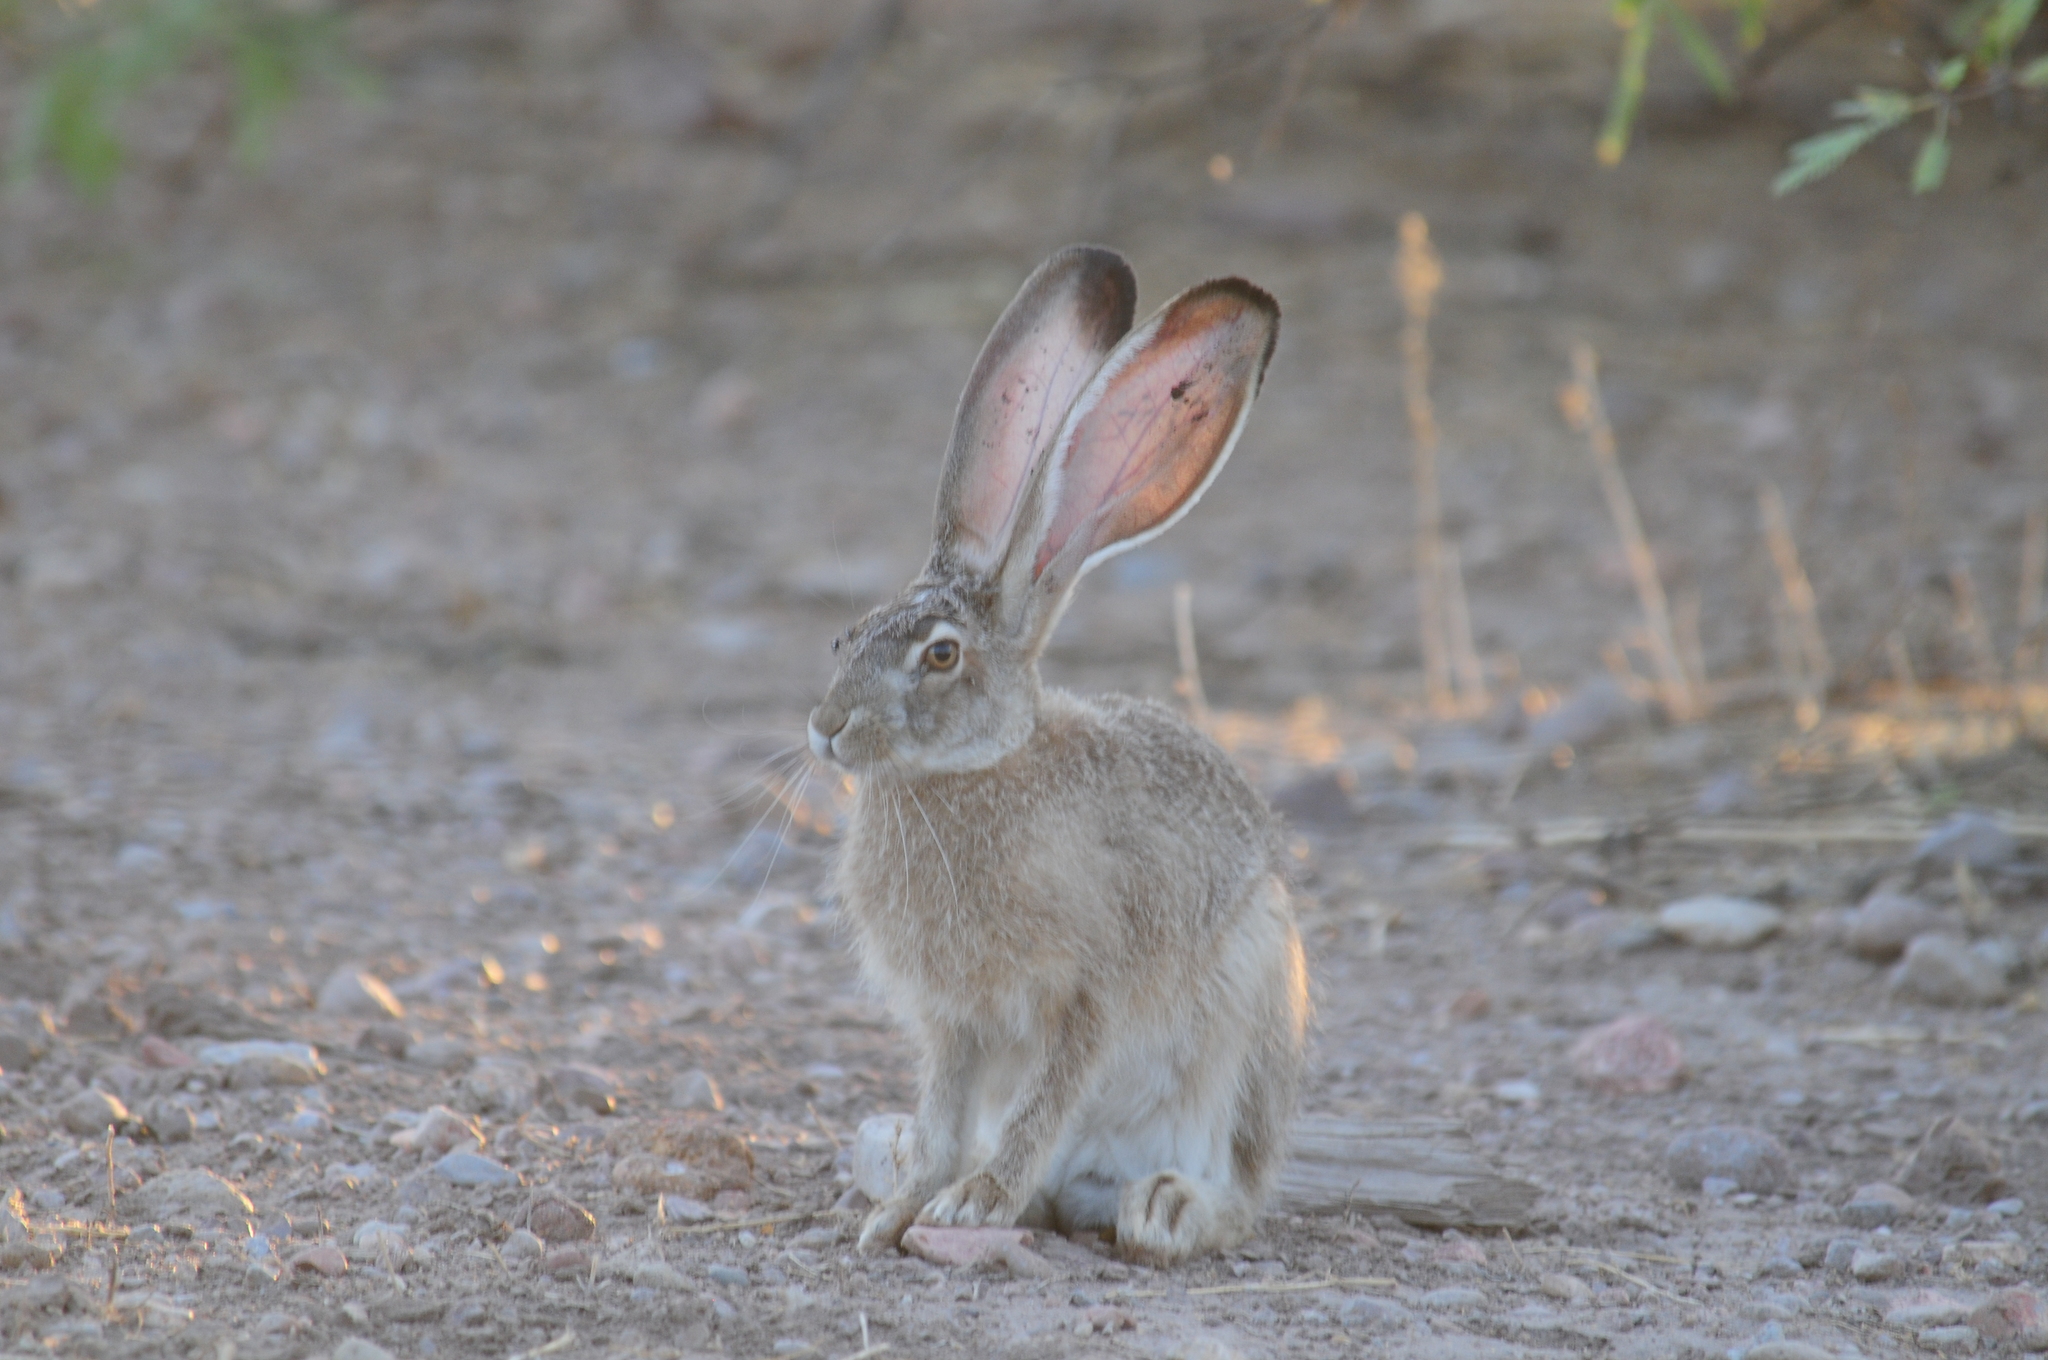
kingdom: Animalia
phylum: Chordata
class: Mammalia
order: Lagomorpha
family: Leporidae
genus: Lepus
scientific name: Lepus californicus
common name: Black-tailed jackrabbit
